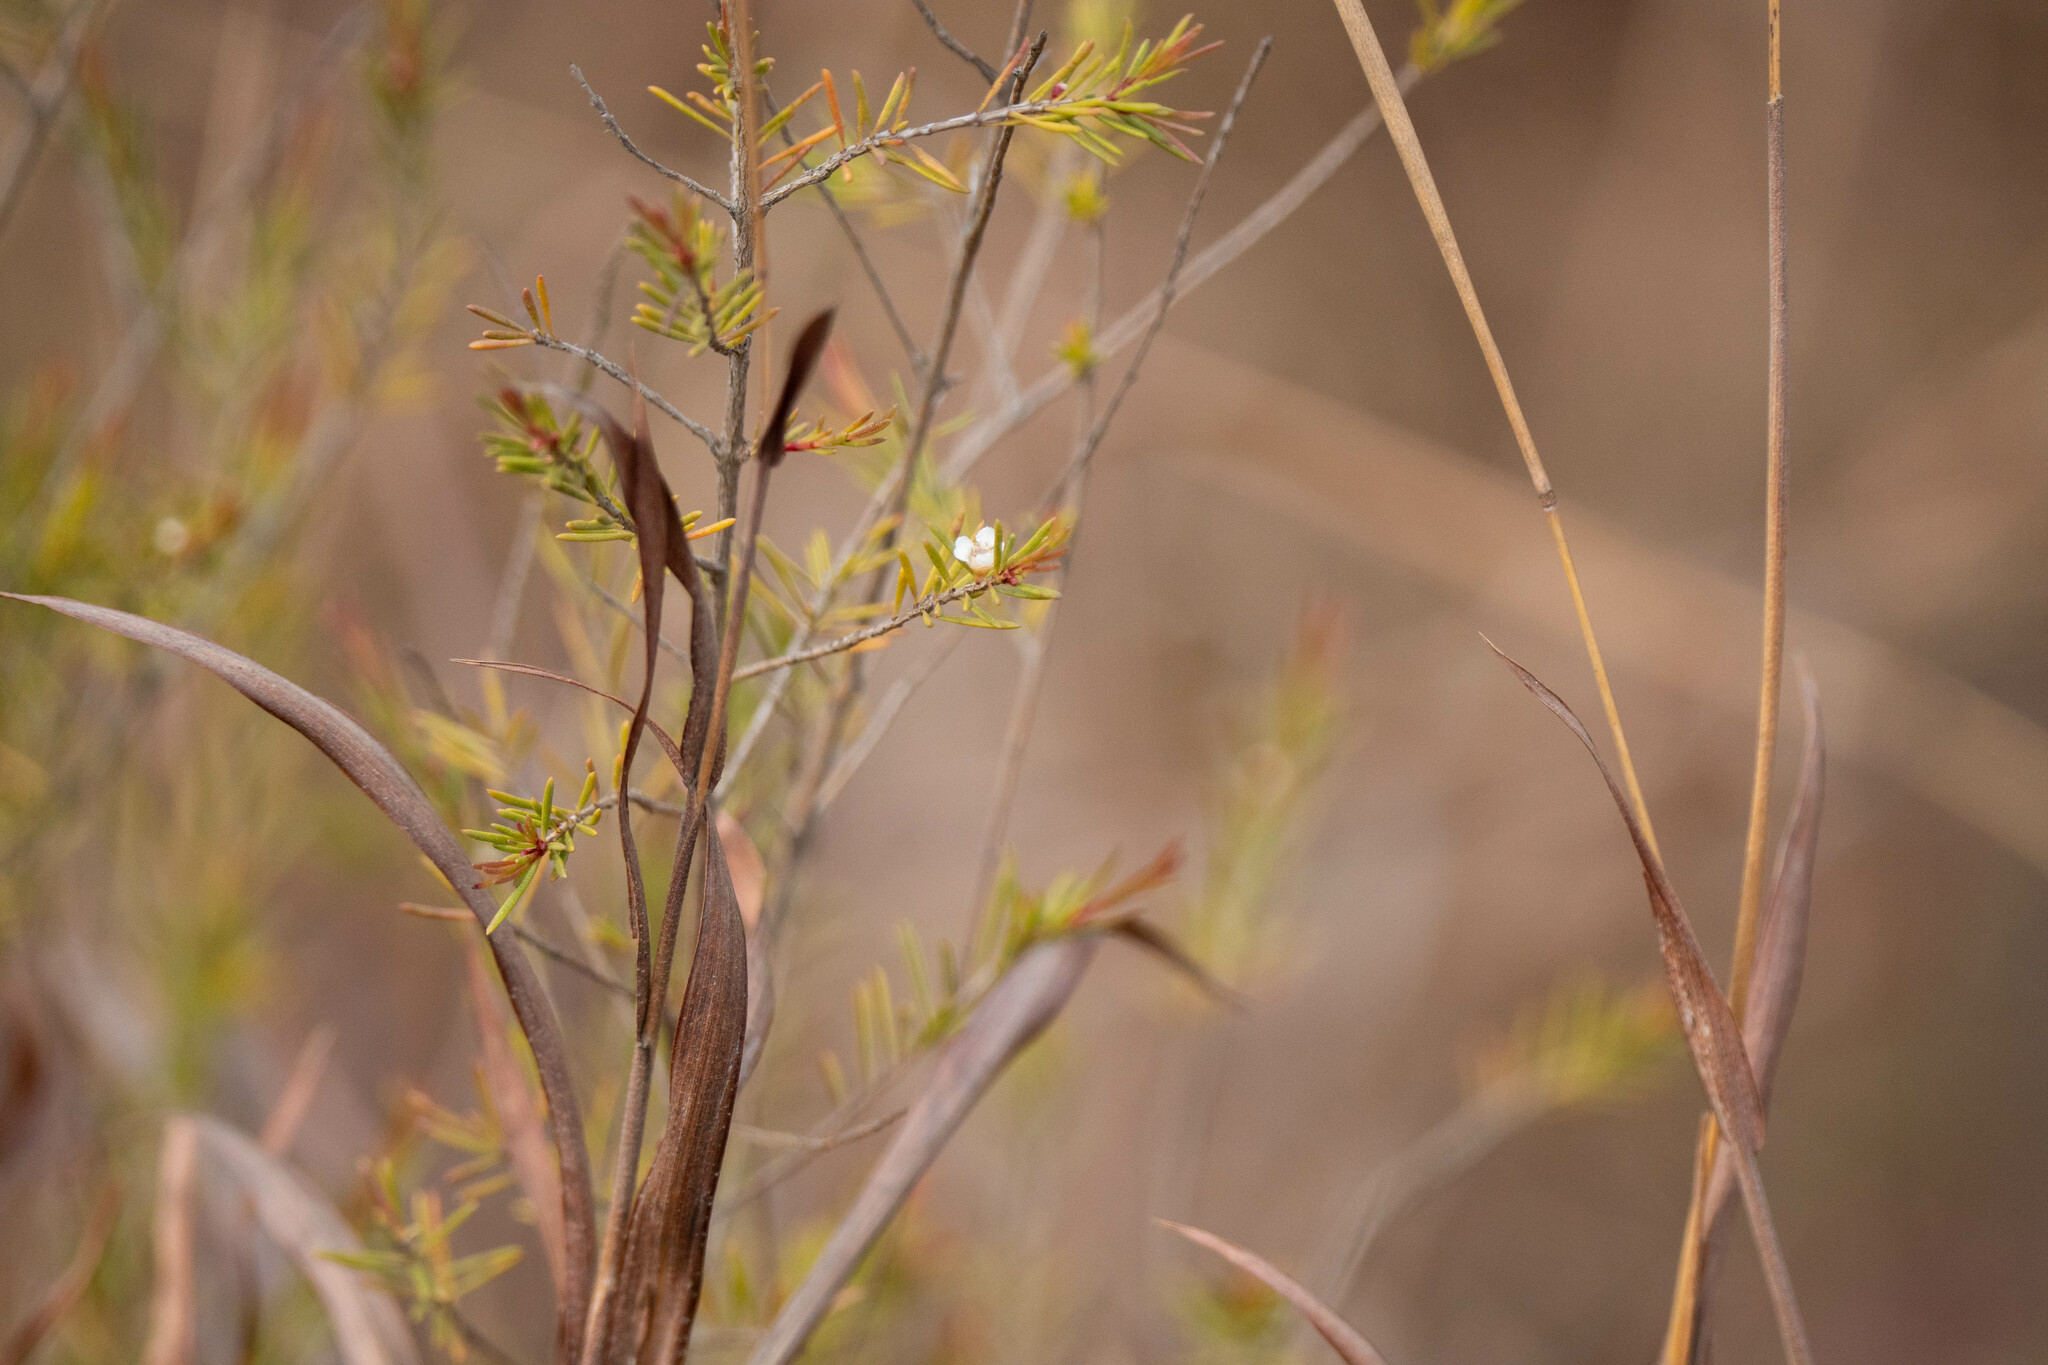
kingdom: Plantae
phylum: Tracheophyta
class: Magnoliopsida
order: Myrtales
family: Myrtaceae
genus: Baeckea
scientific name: Baeckea frutescens
